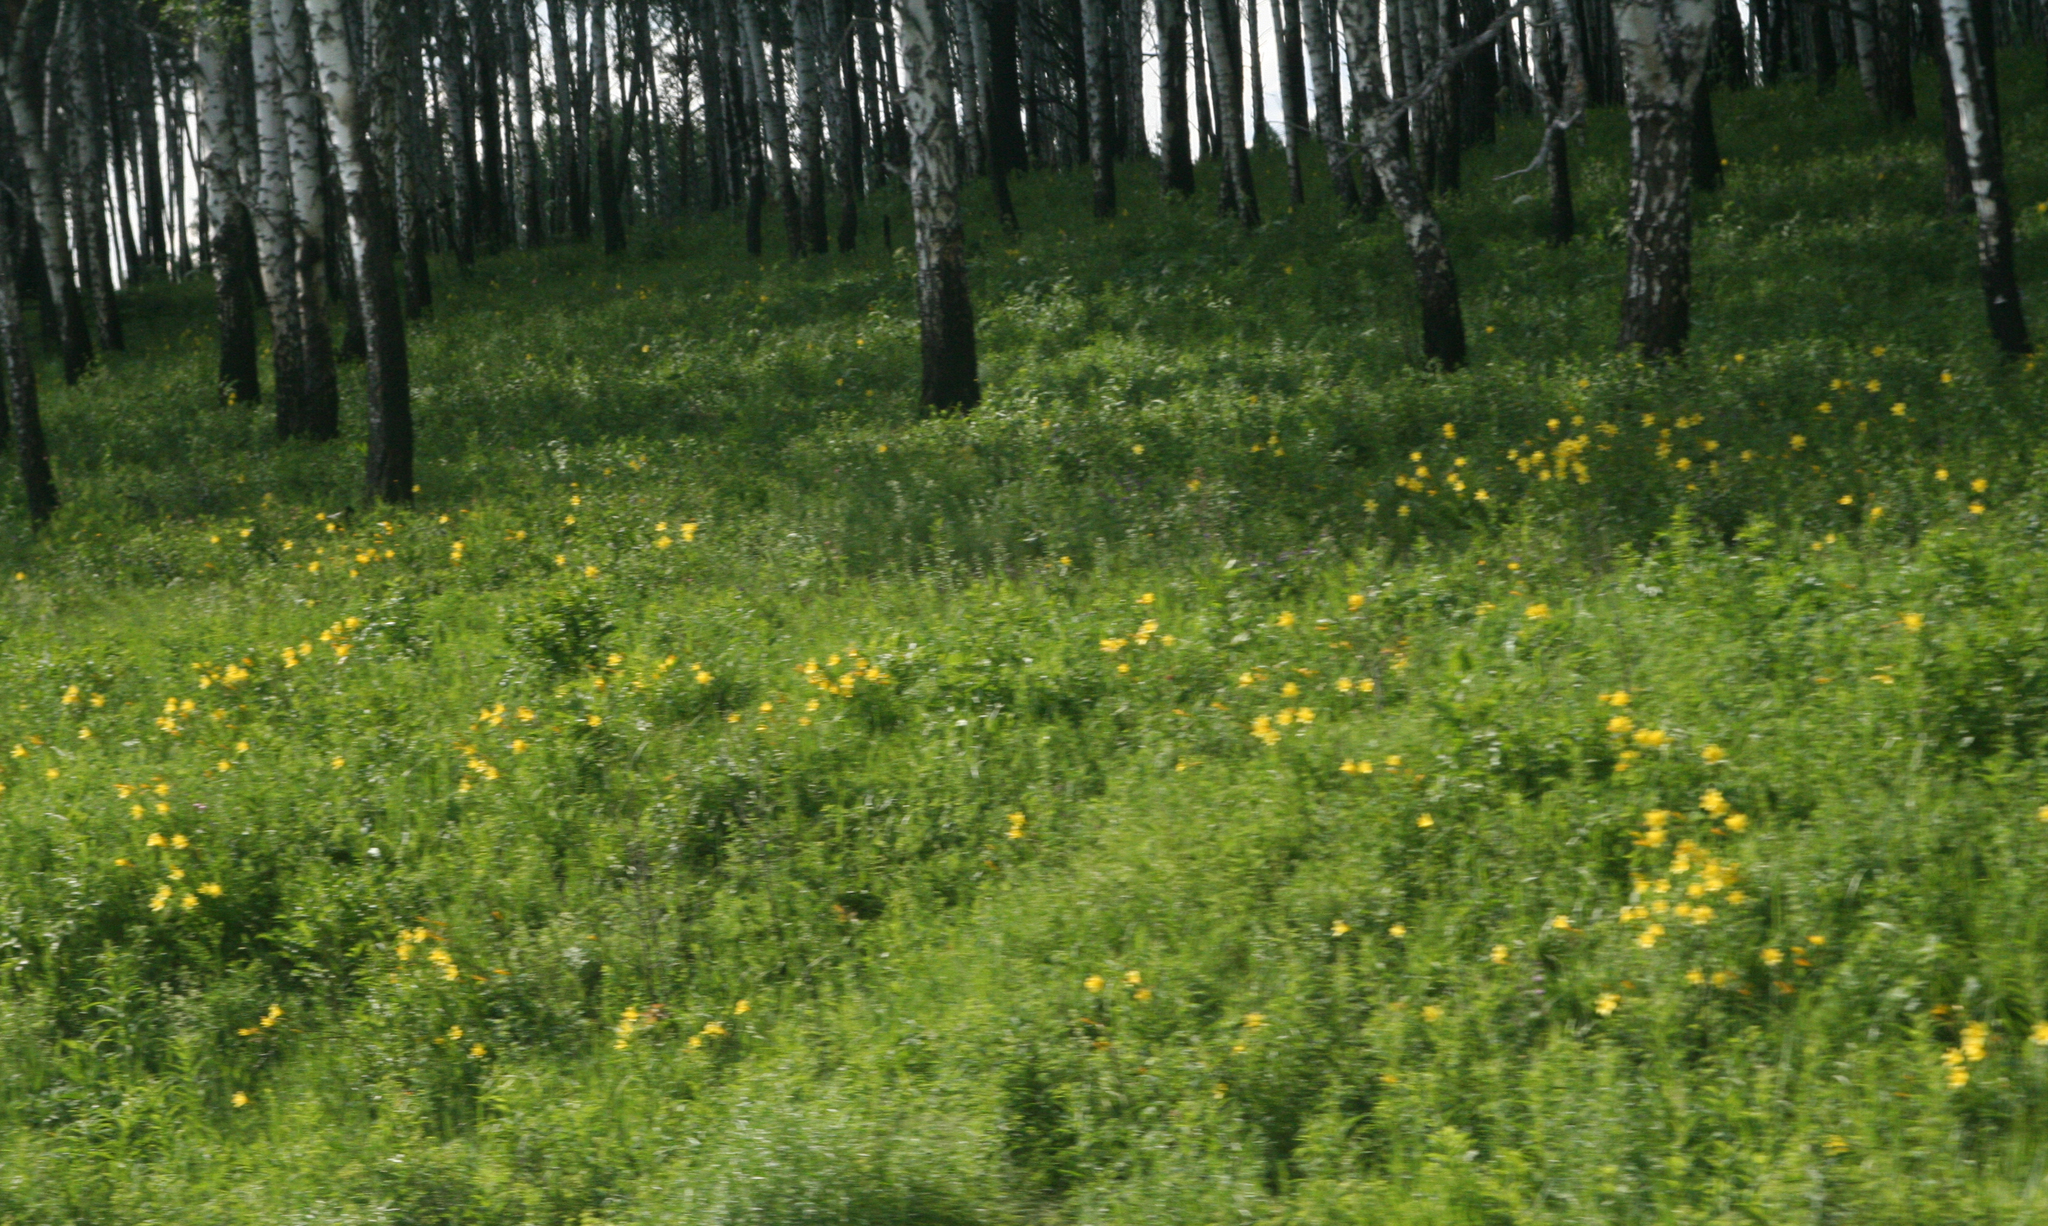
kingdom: Plantae
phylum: Tracheophyta
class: Liliopsida
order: Asparagales
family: Asphodelaceae
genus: Hemerocallis
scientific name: Hemerocallis minor
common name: Small daylily
